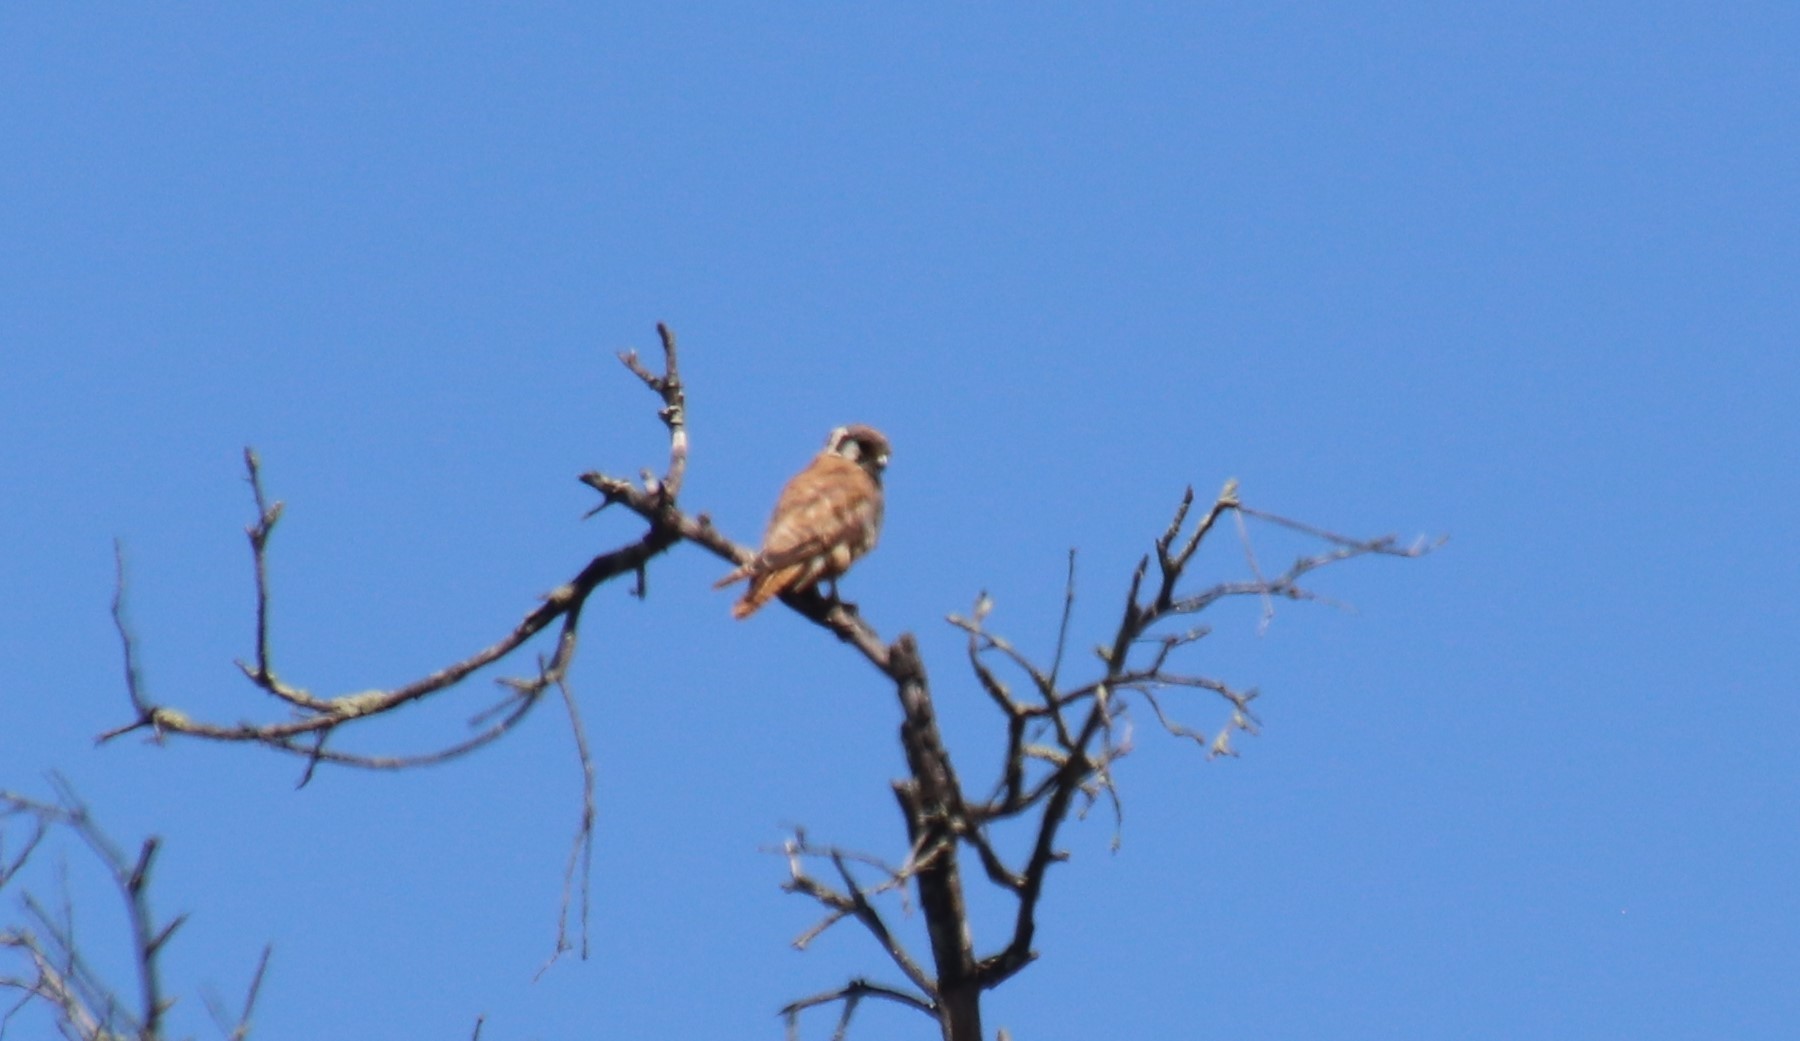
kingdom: Animalia
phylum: Chordata
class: Aves
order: Falconiformes
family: Falconidae
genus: Falco
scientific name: Falco sparverius
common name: American kestrel
